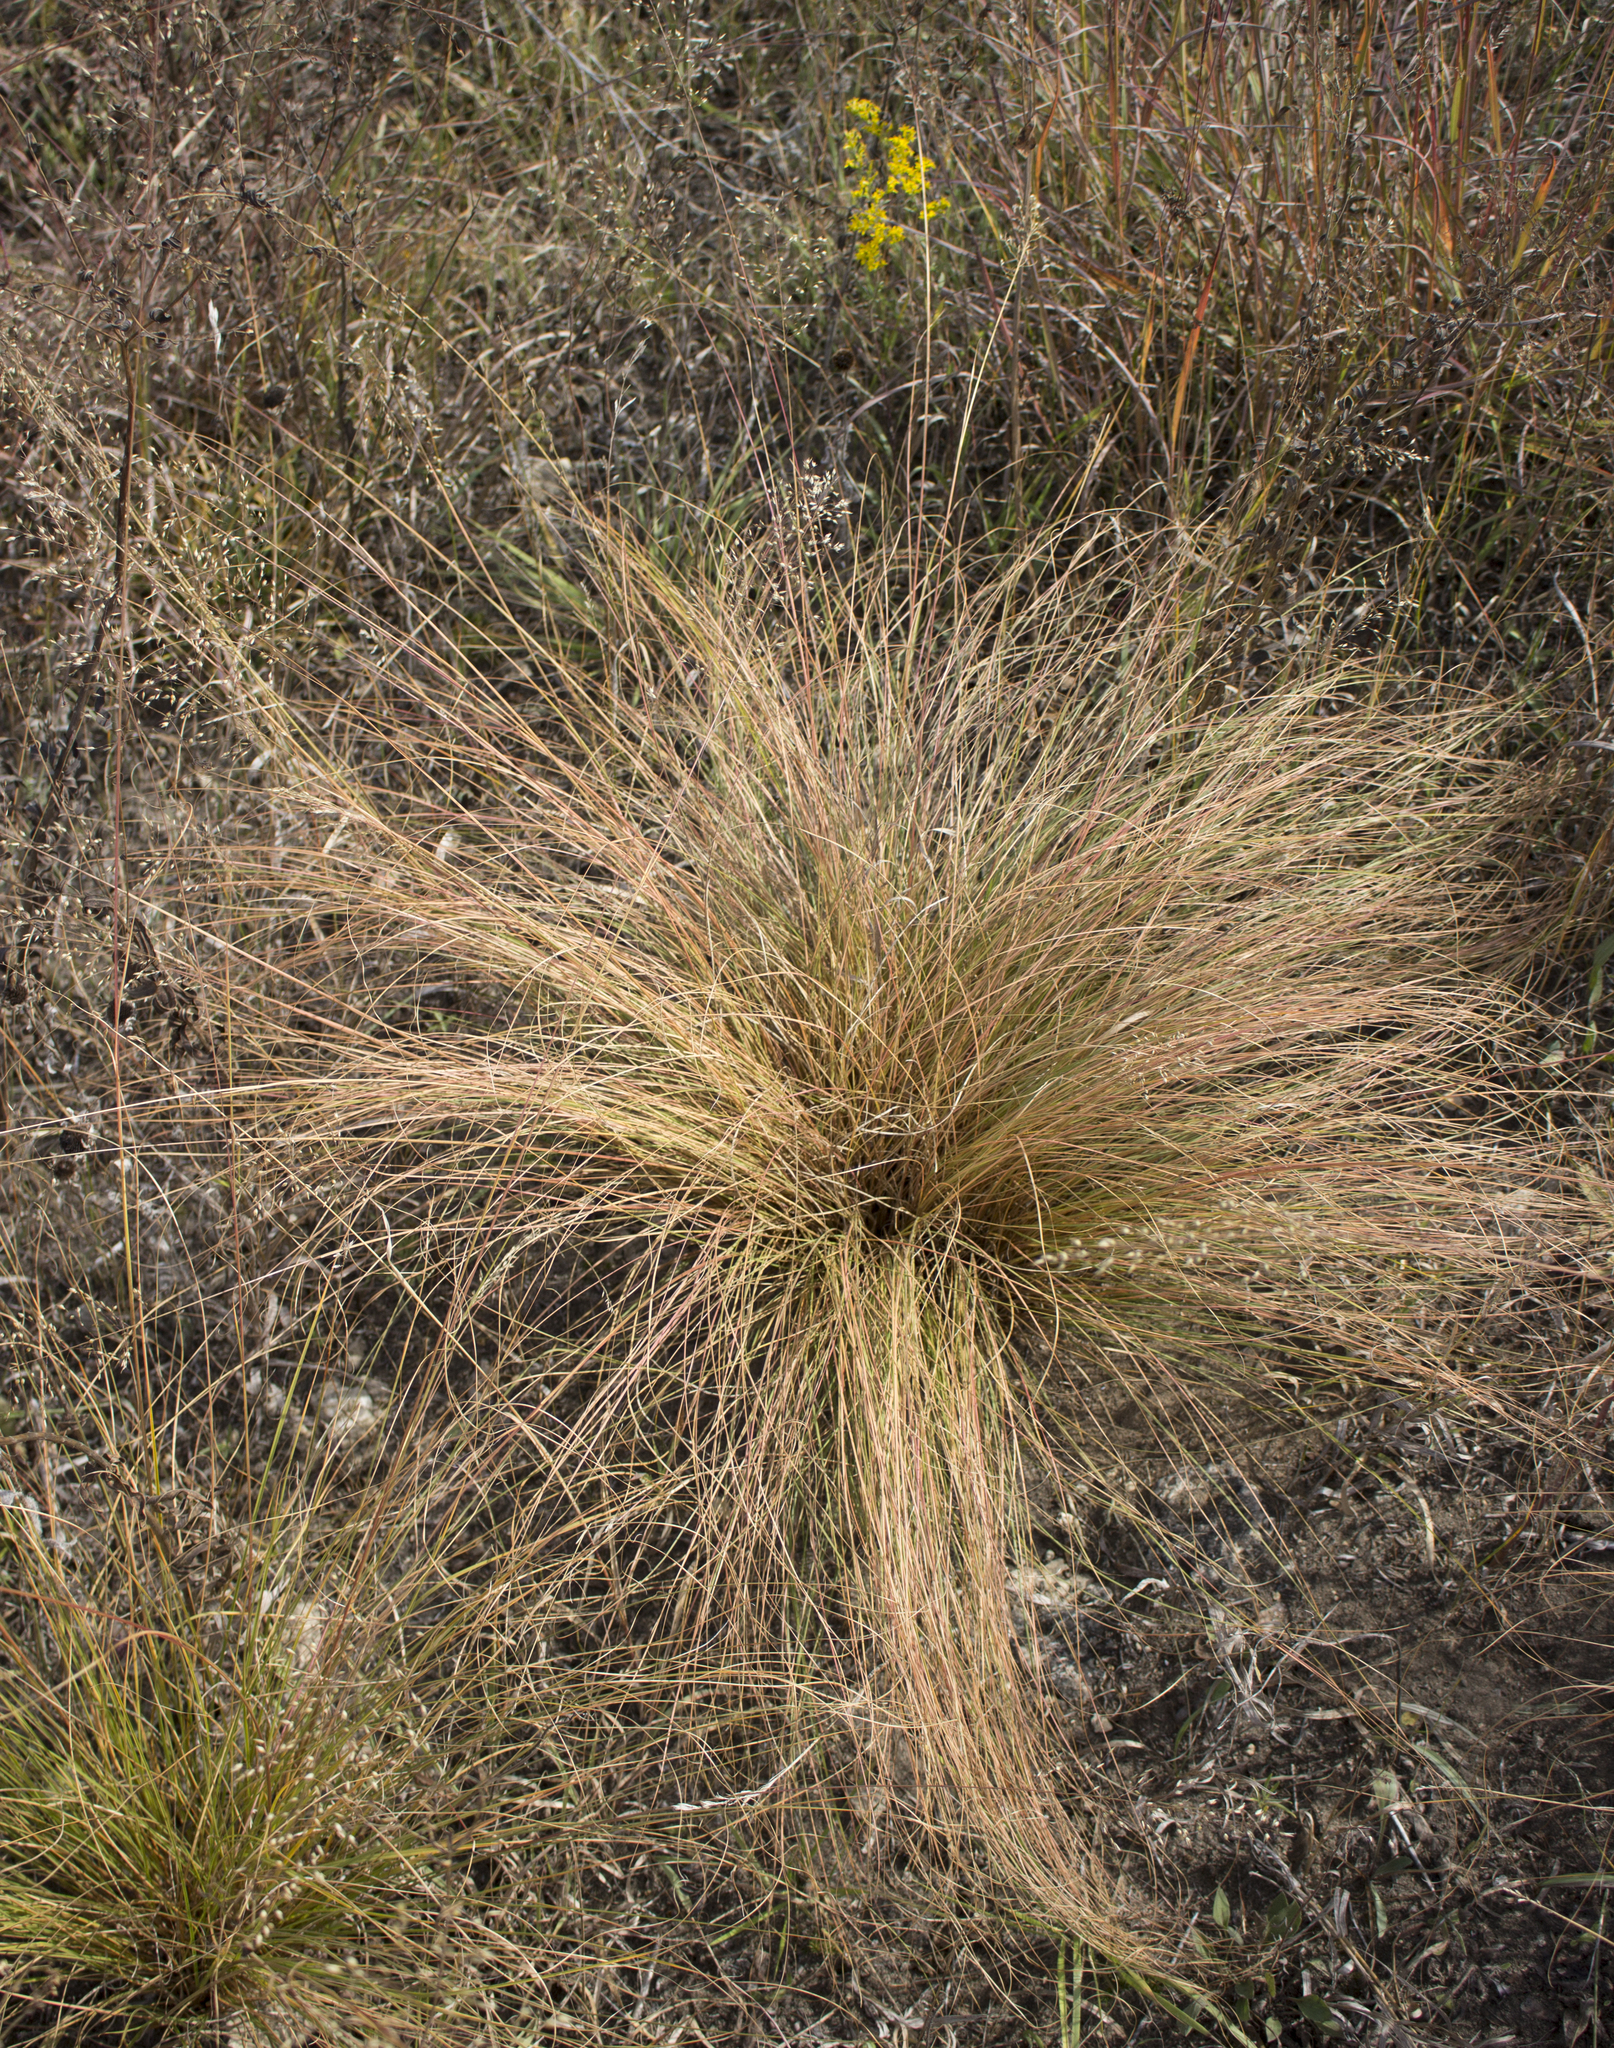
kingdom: Plantae
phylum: Tracheophyta
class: Liliopsida
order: Poales
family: Poaceae
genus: Sporobolus
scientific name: Sporobolus heterolepis
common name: Prairie dropseed
